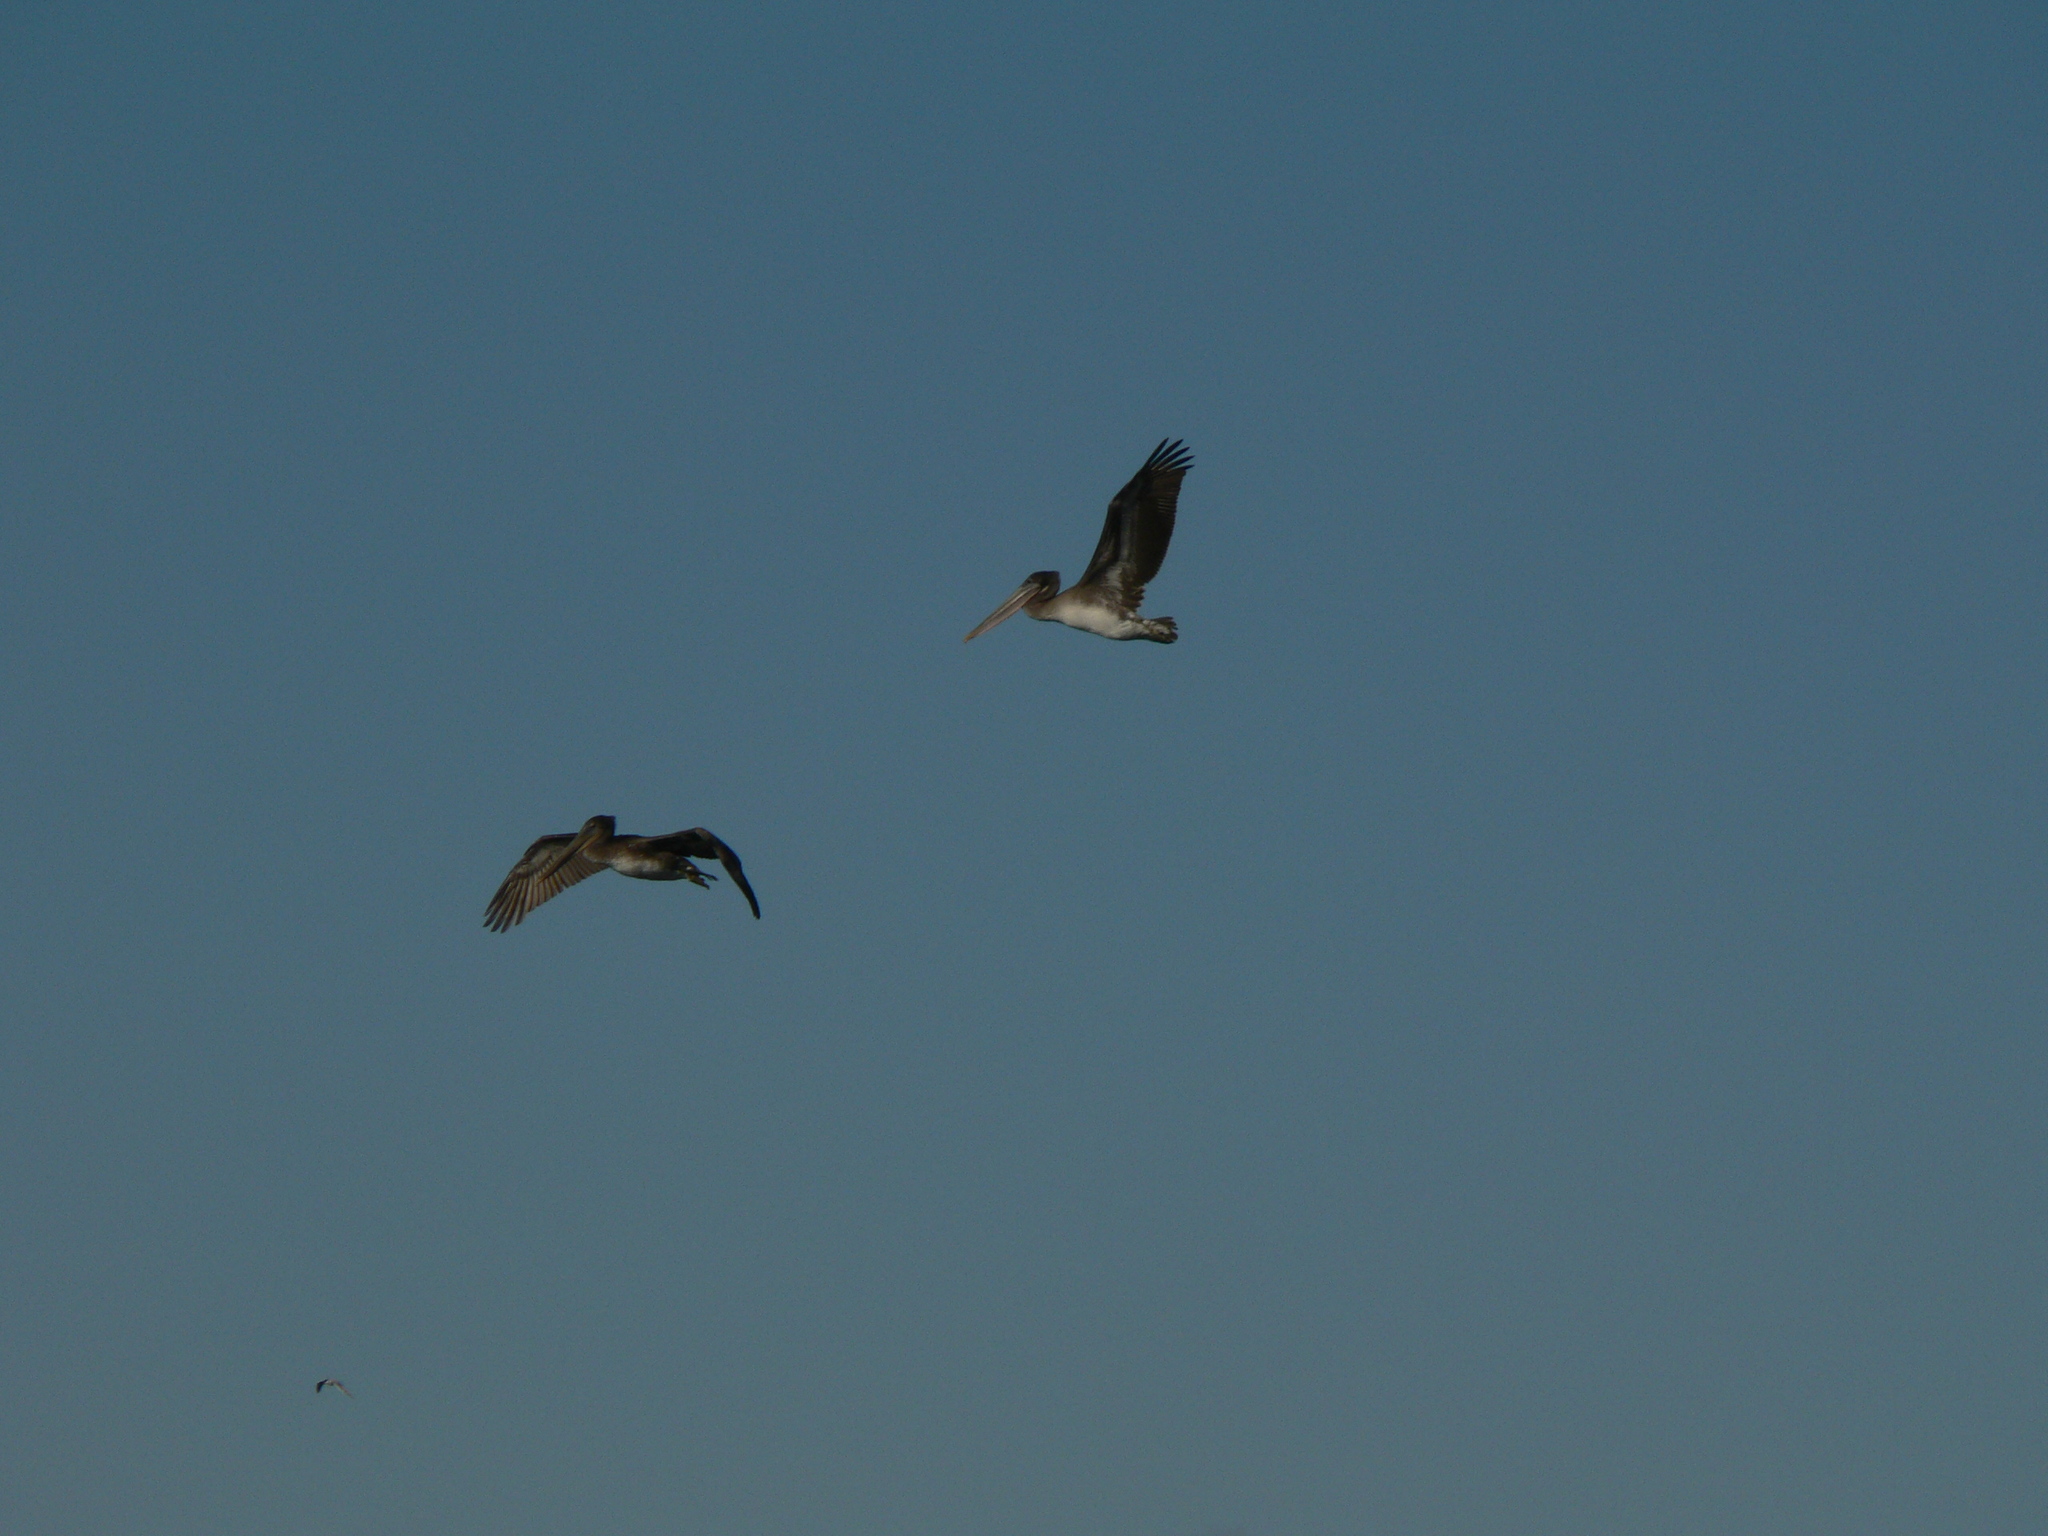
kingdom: Animalia
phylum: Chordata
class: Aves
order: Pelecaniformes
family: Pelecanidae
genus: Pelecanus
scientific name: Pelecanus occidentalis
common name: Brown pelican
